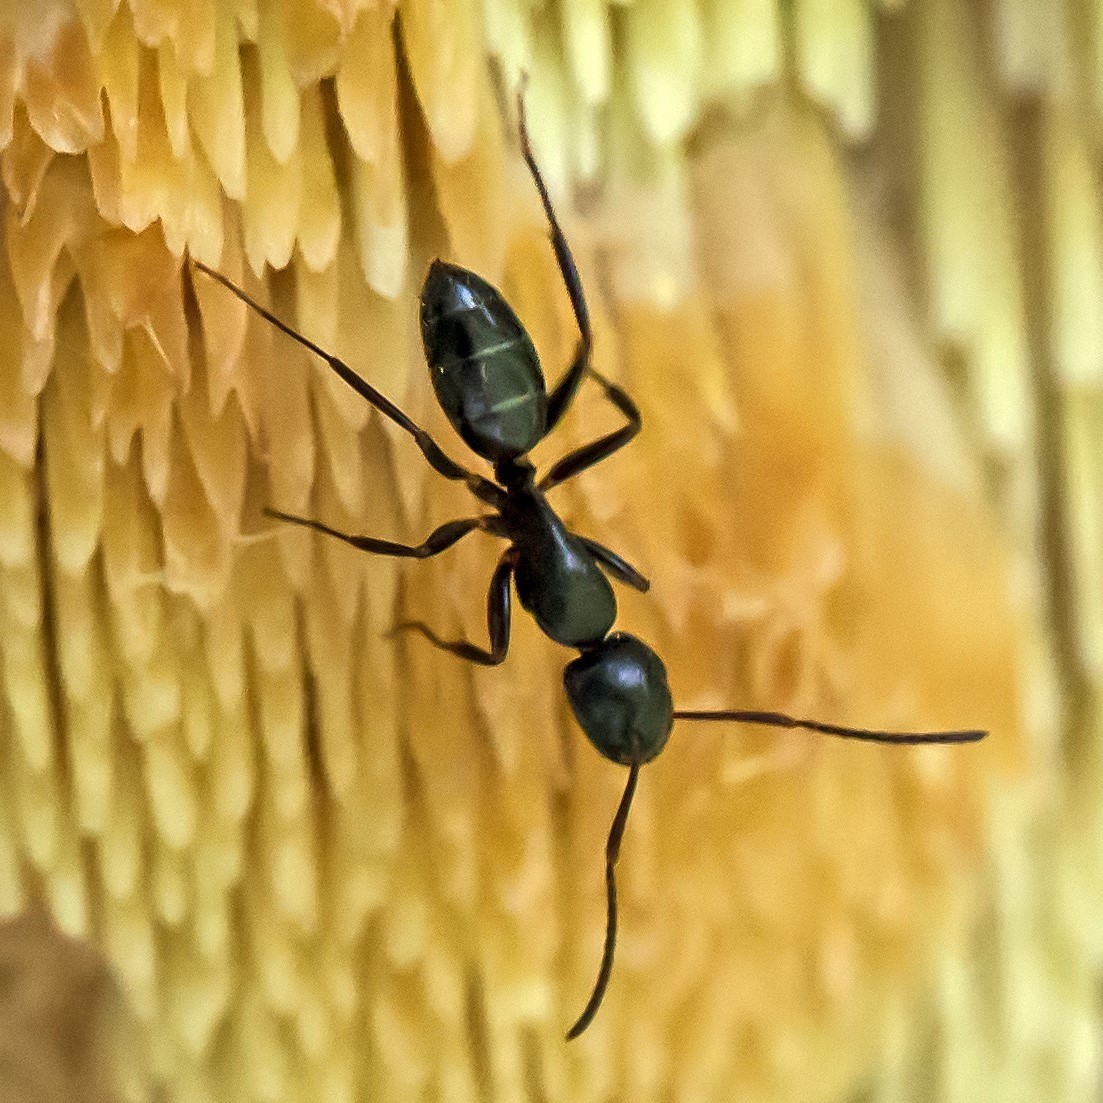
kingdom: Animalia
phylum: Arthropoda
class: Insecta
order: Hymenoptera
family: Formicidae
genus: Camponotus
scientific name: Camponotus nearcticus
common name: Smaller carpenter ant
